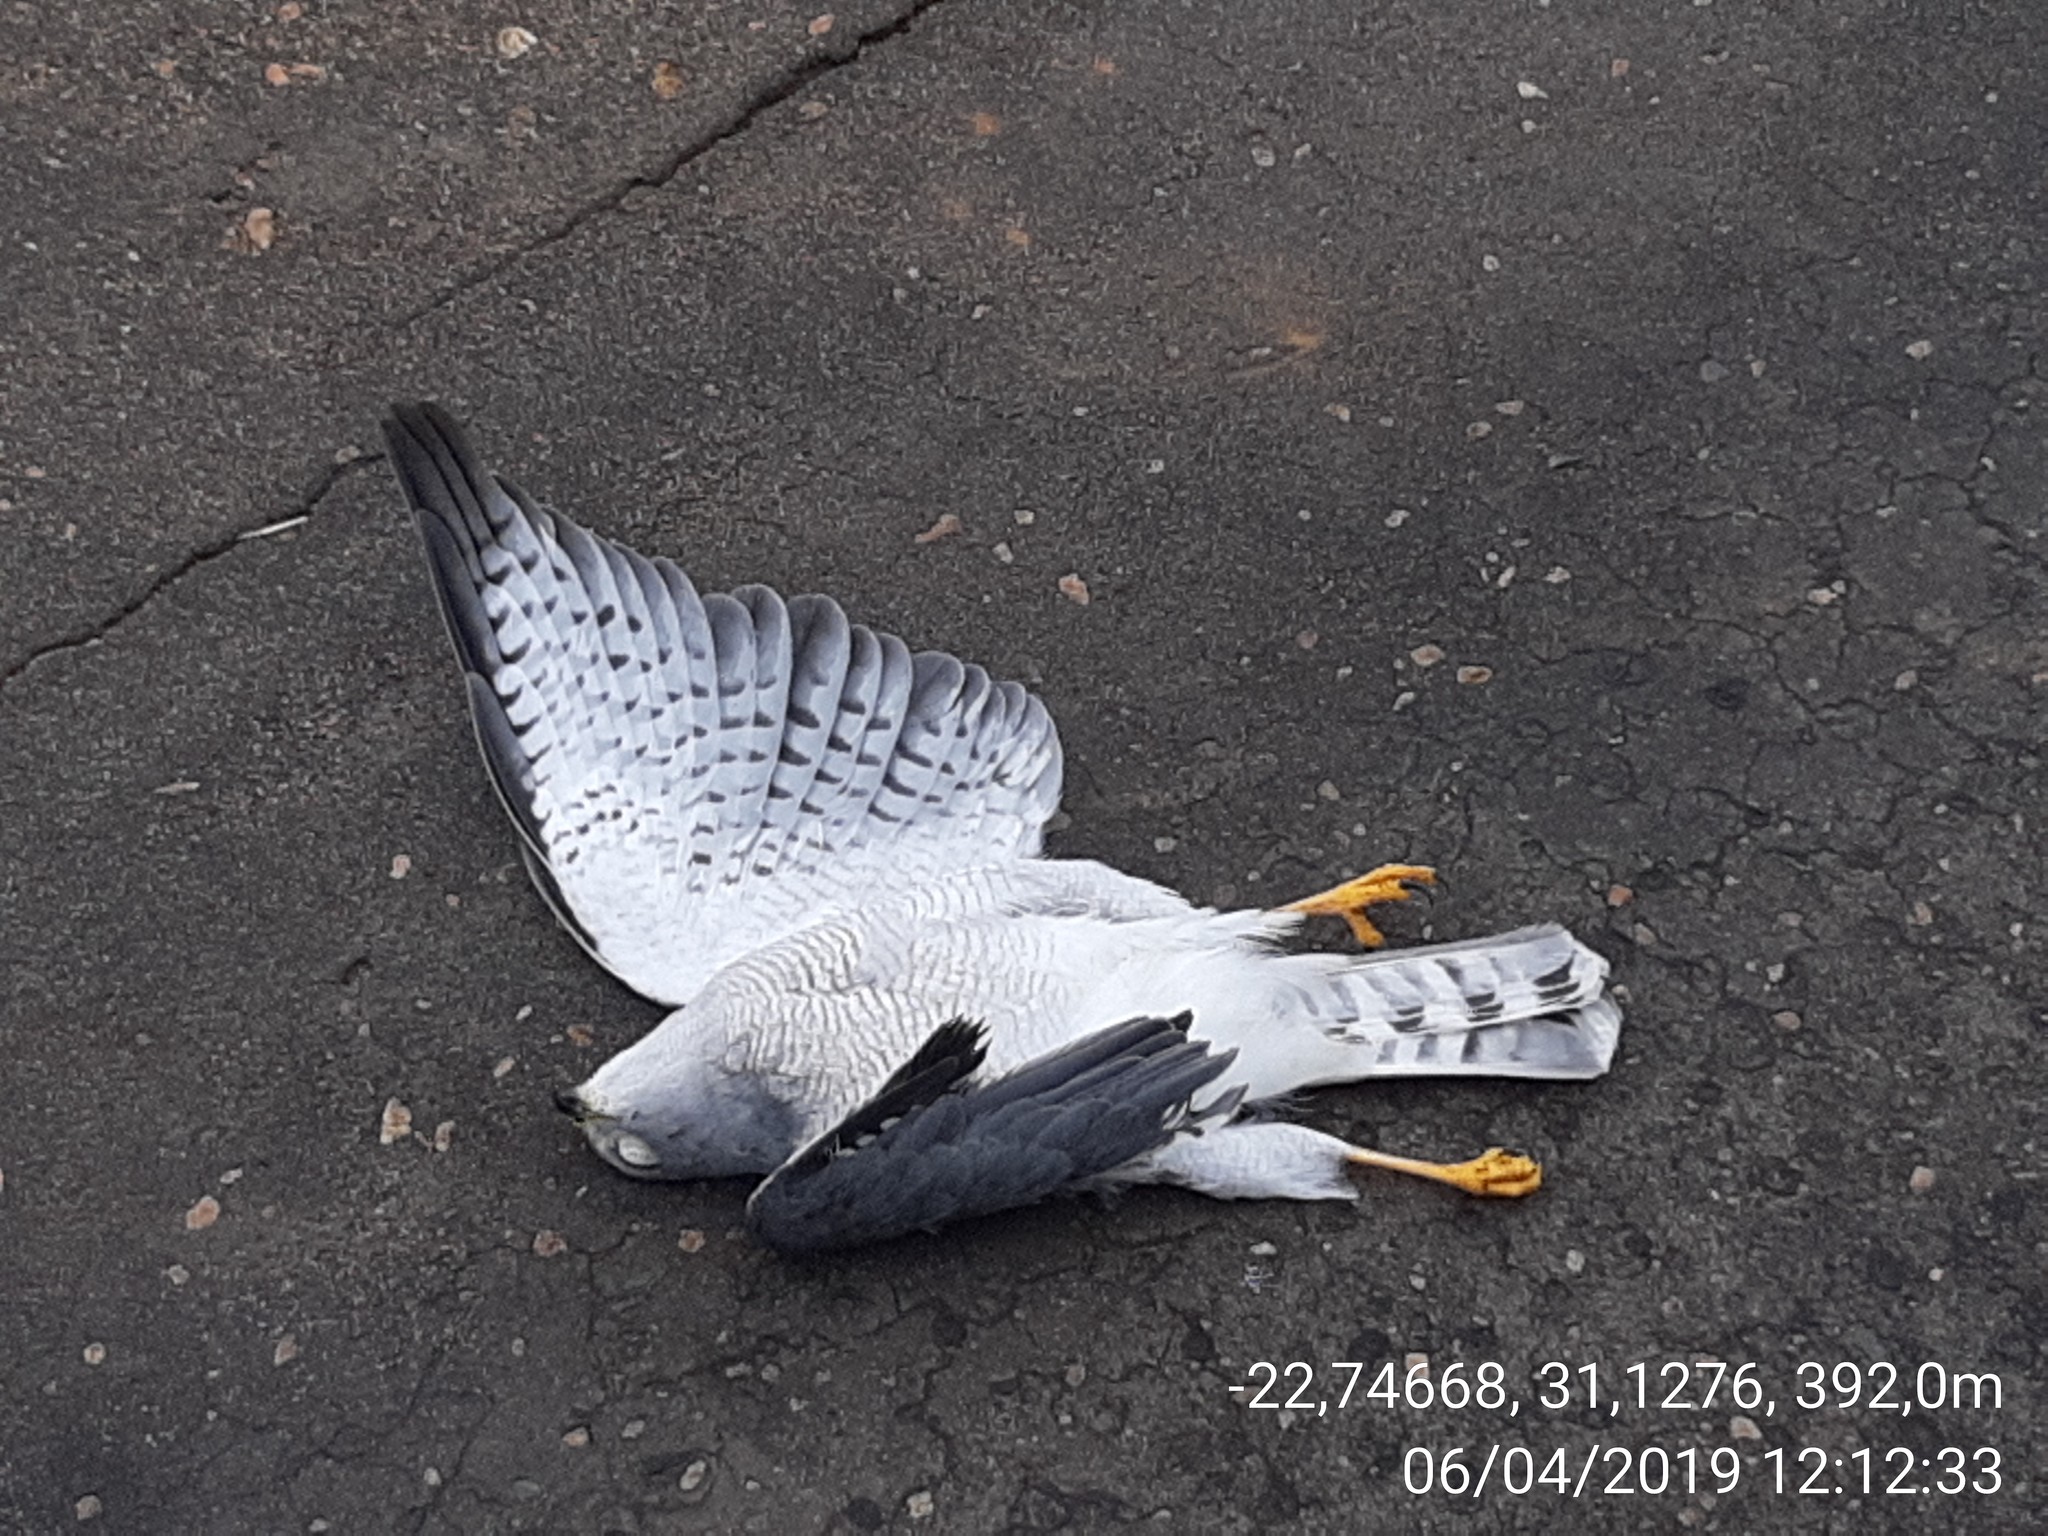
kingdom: Animalia
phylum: Chordata
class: Aves
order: Accipitriformes
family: Accipitridae
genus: Accipiter
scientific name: Accipiter badius
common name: Shikra
